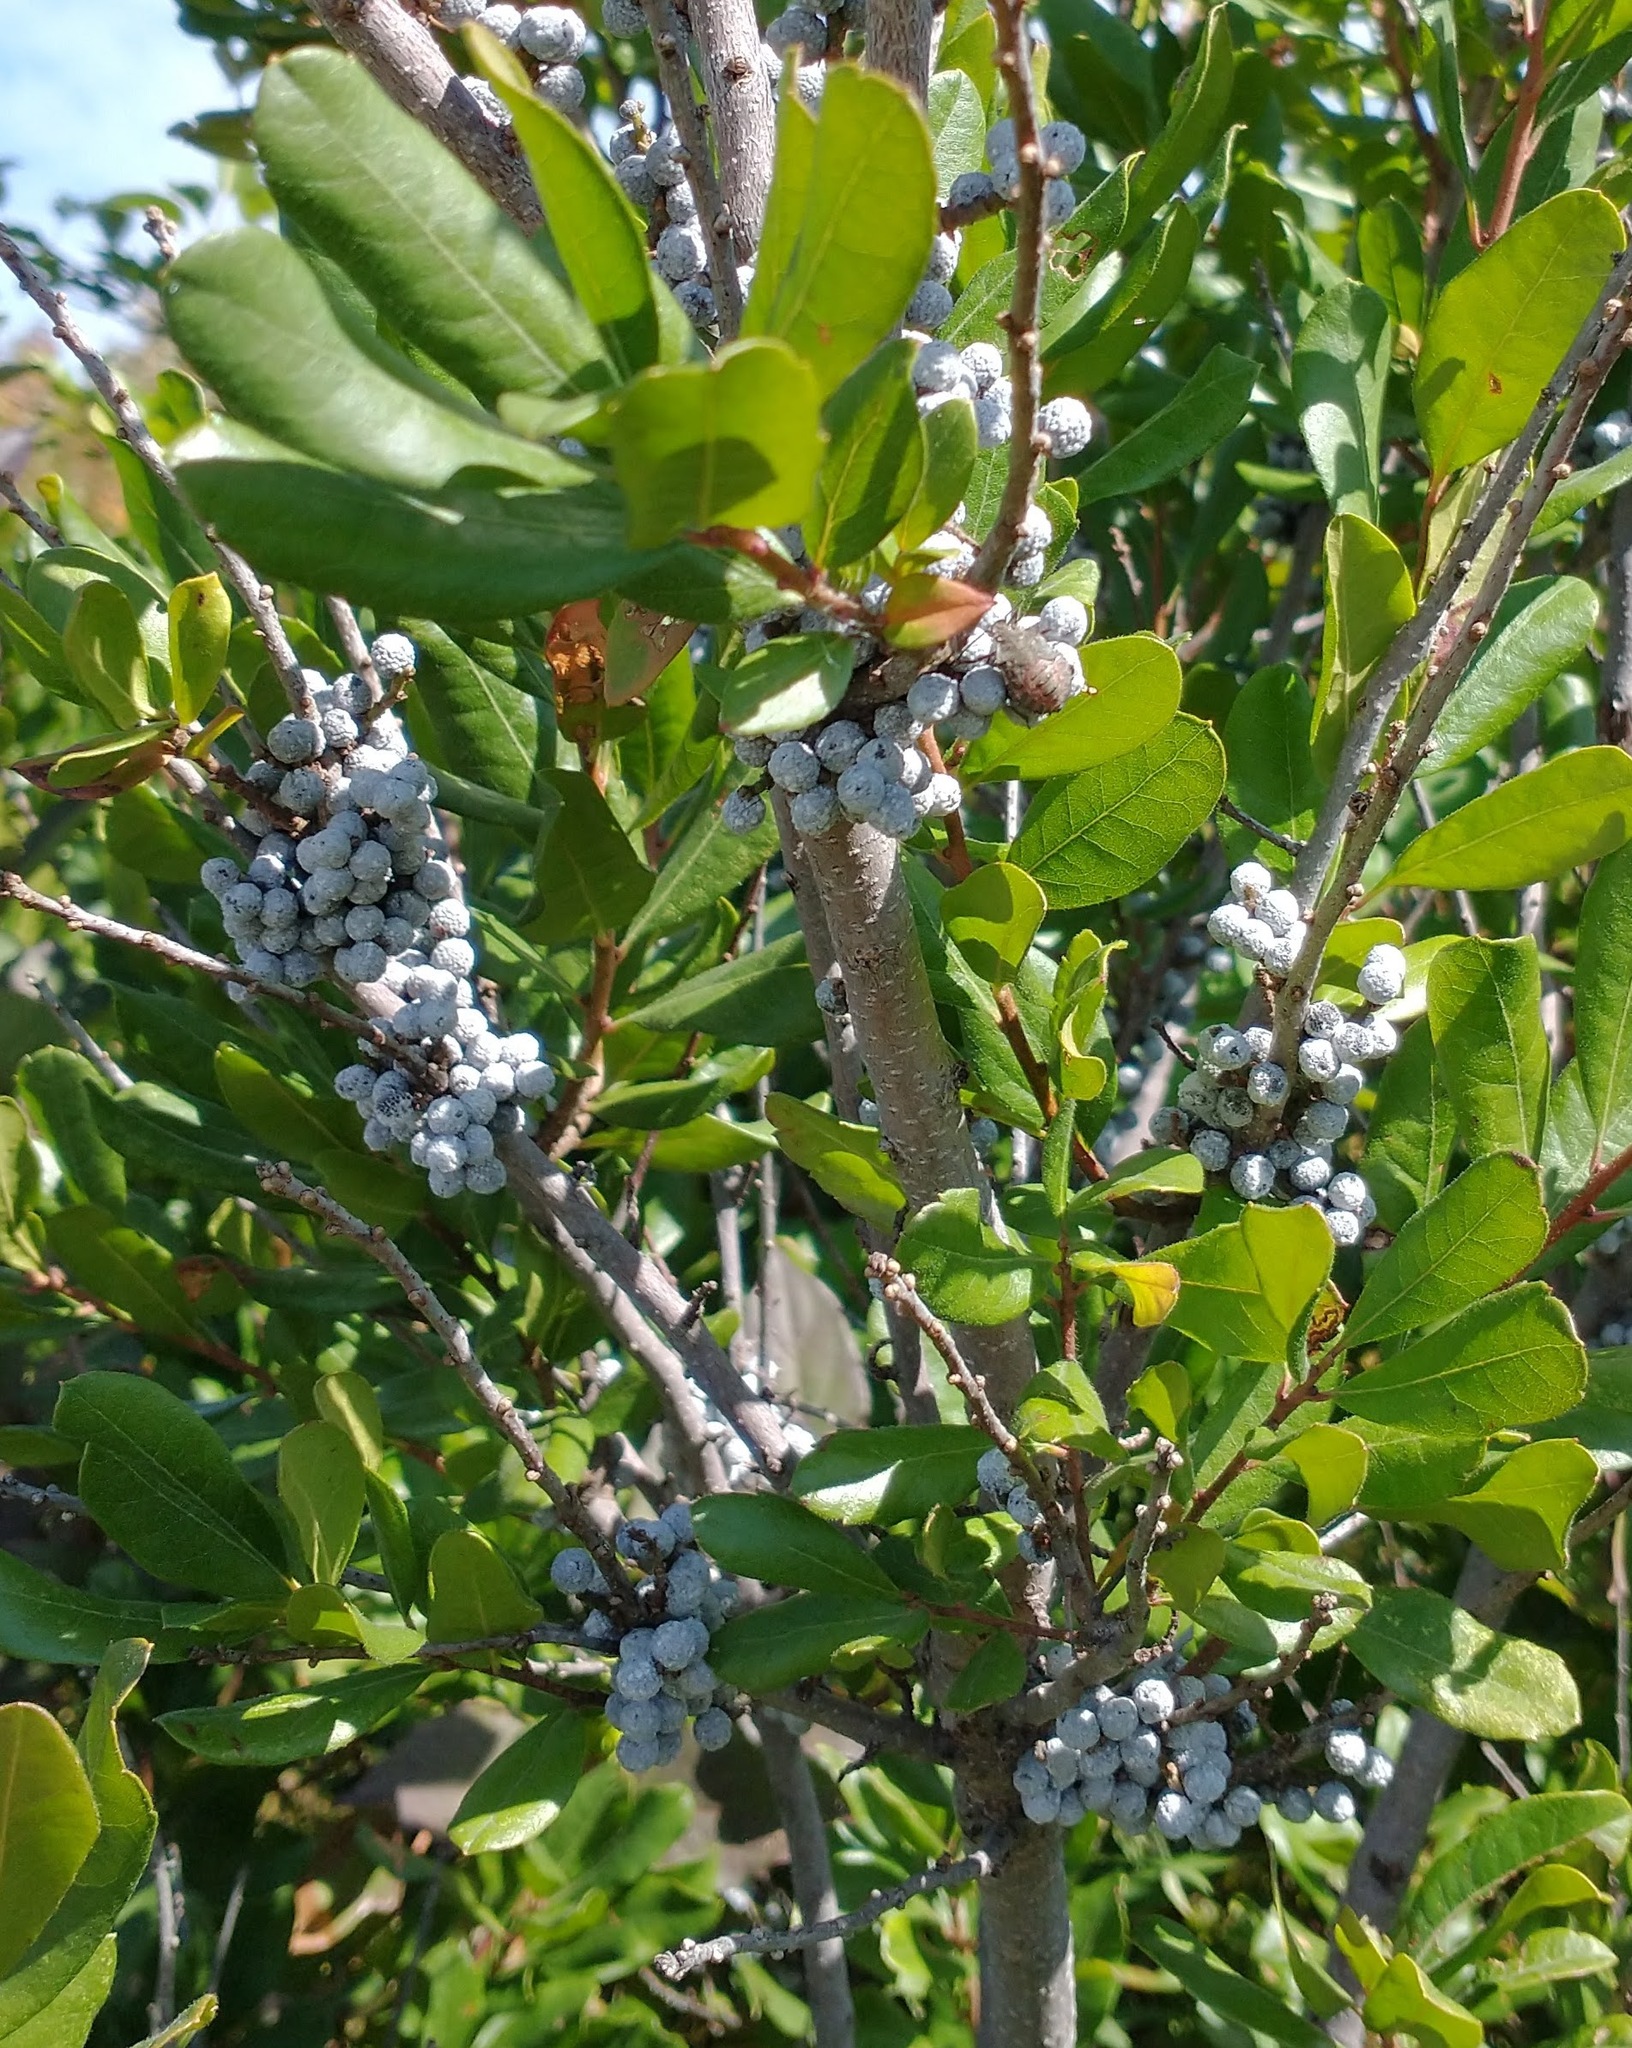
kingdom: Plantae
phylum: Tracheophyta
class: Magnoliopsida
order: Fagales
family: Myricaceae
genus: Morella
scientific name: Morella pensylvanica
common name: Northern bayberry
